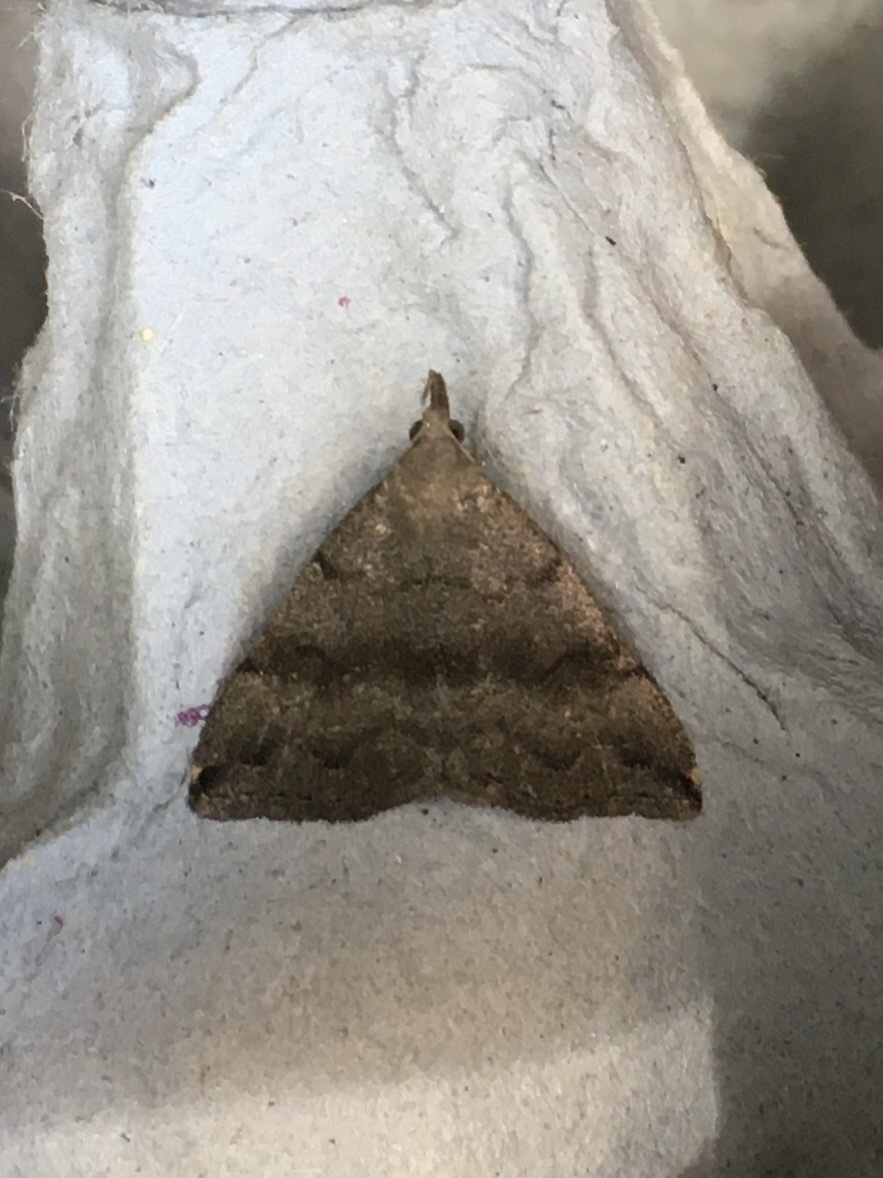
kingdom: Animalia
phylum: Arthropoda
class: Insecta
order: Lepidoptera
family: Erebidae
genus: Phalaenostola
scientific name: Phalaenostola eumelusalis
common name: Dark phalaenostola moth
